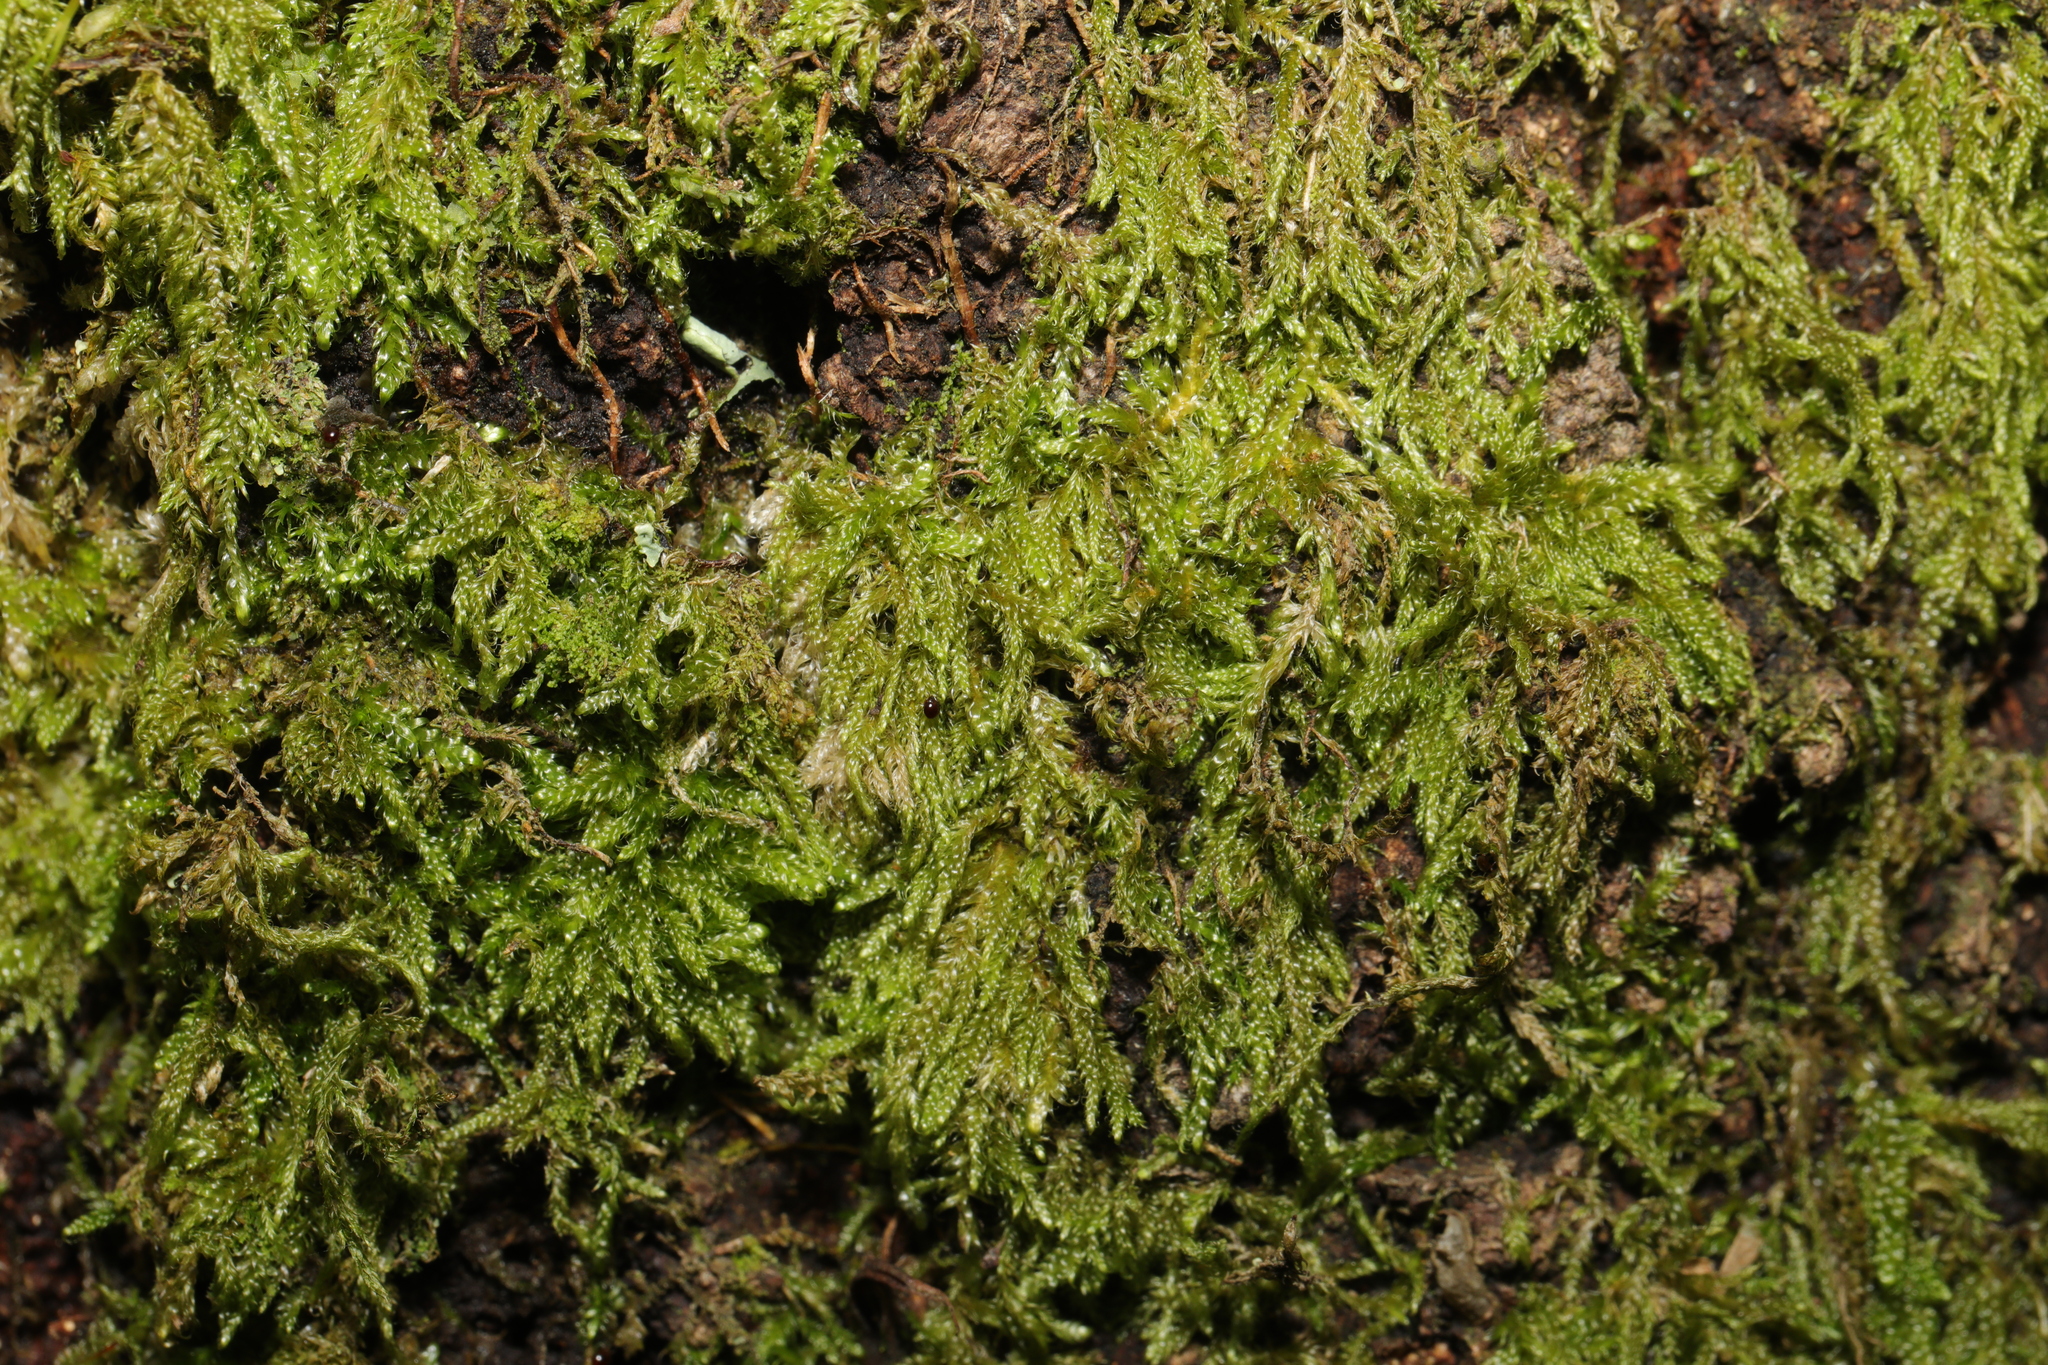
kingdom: Plantae
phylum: Bryophyta
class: Bryopsida
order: Hypnales
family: Hypnaceae
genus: Hypnum
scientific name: Hypnum cupressiforme
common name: Cypress-leaved plait-moss
